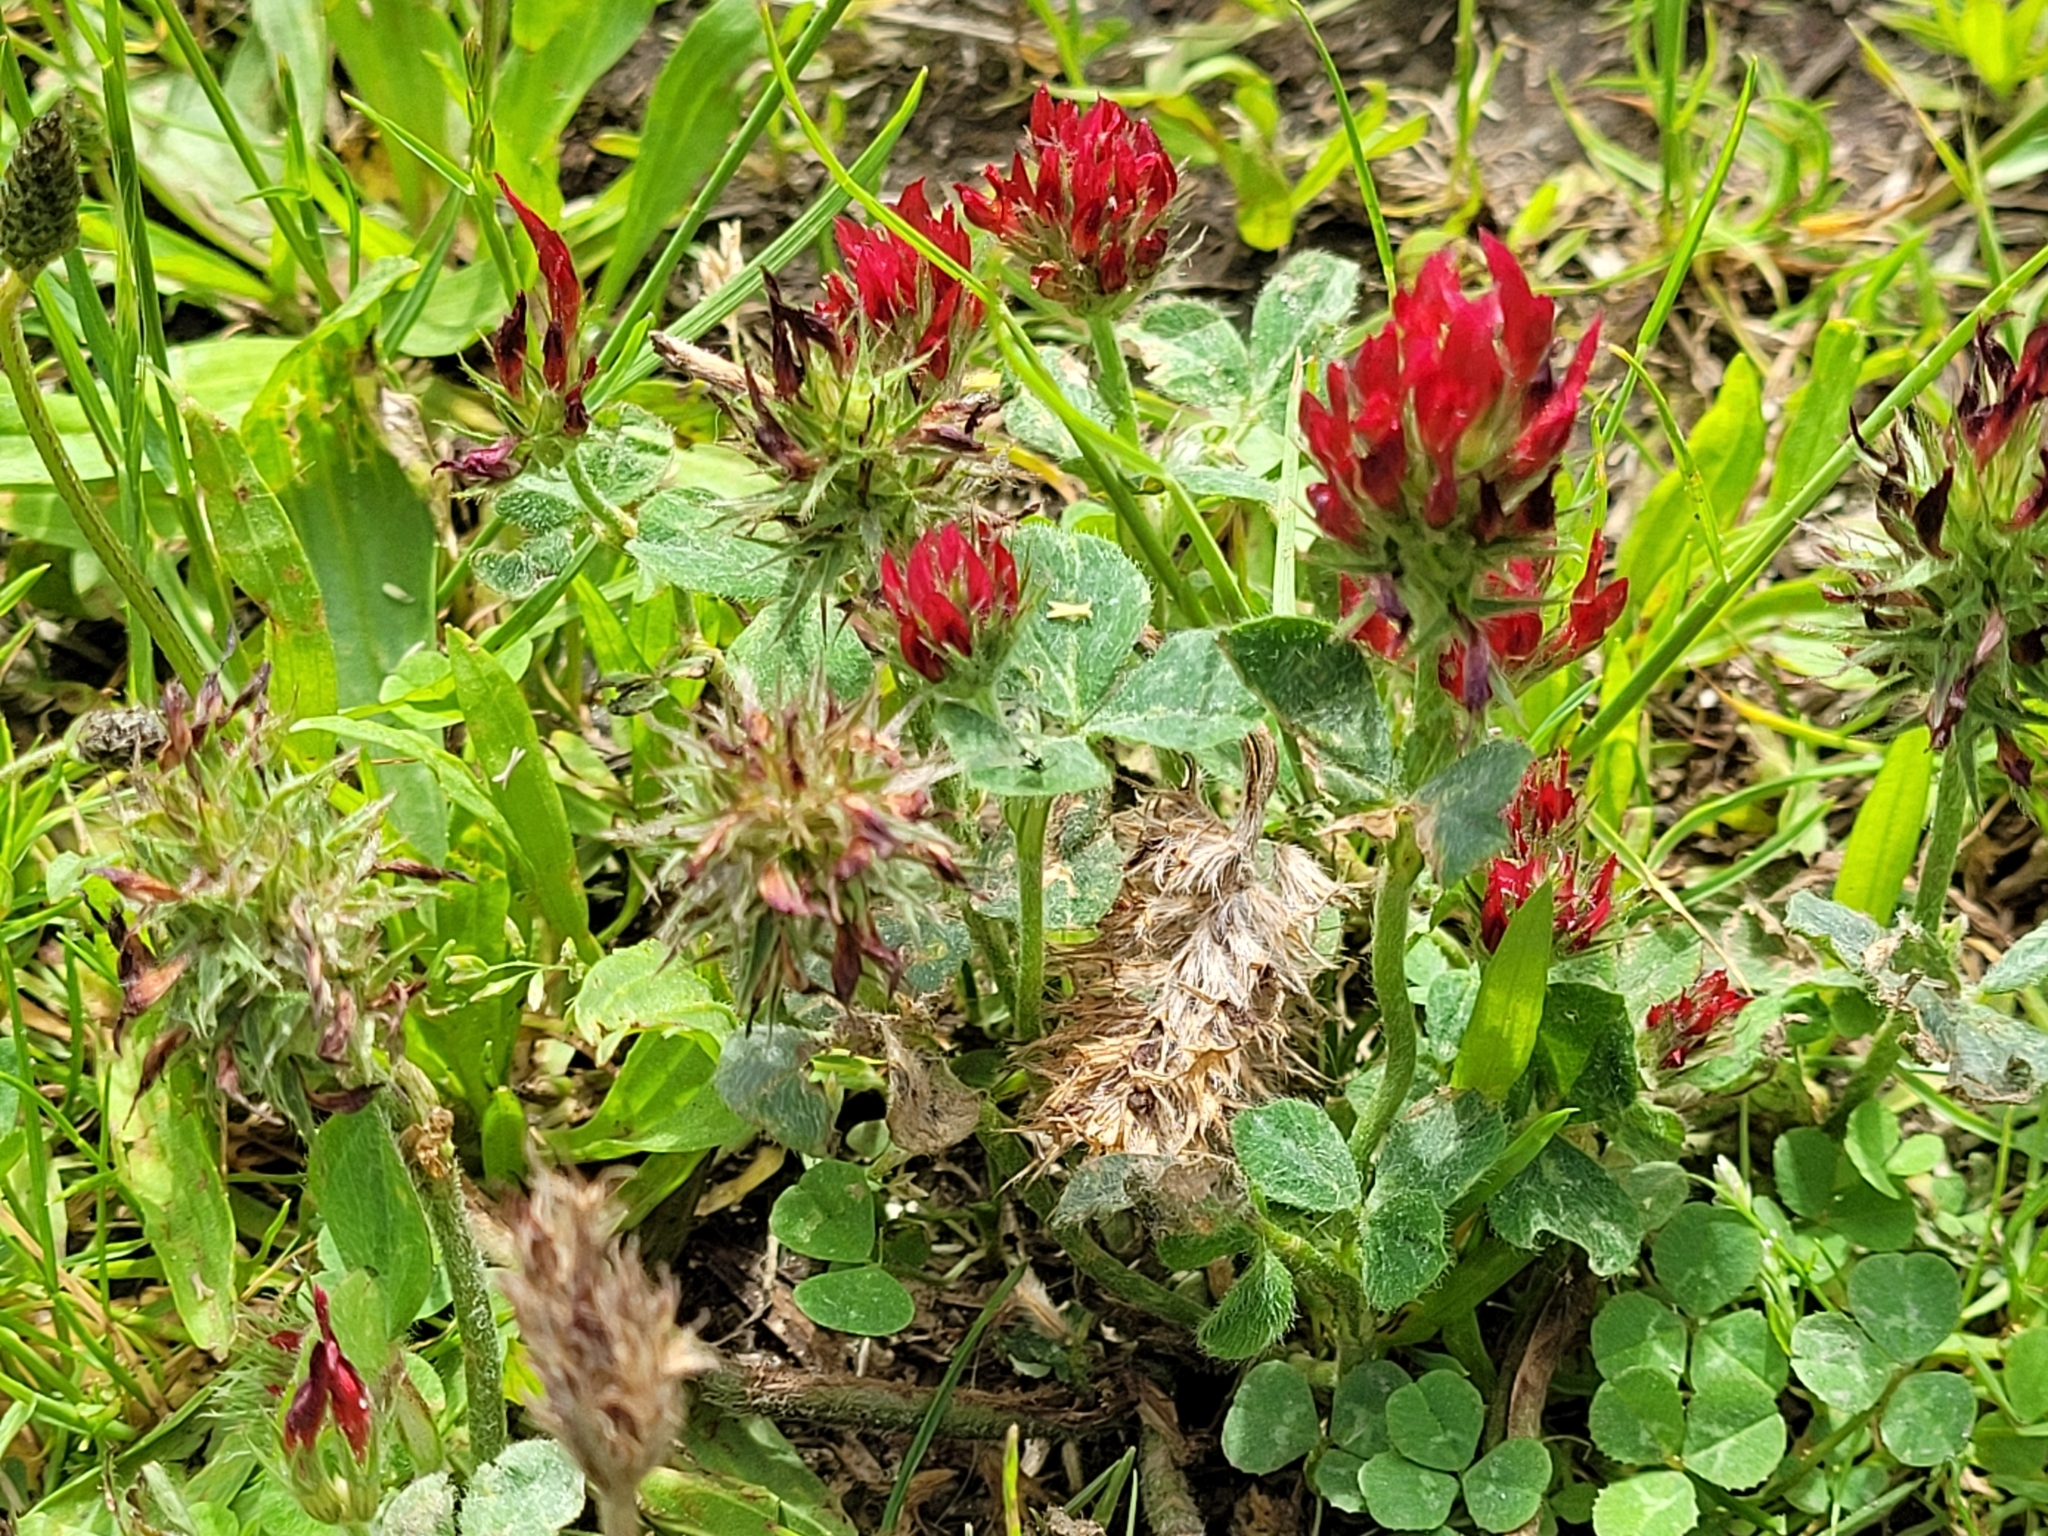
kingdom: Plantae
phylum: Tracheophyta
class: Magnoliopsida
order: Fabales
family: Fabaceae
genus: Trifolium
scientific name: Trifolium incarnatum
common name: Crimson clover
